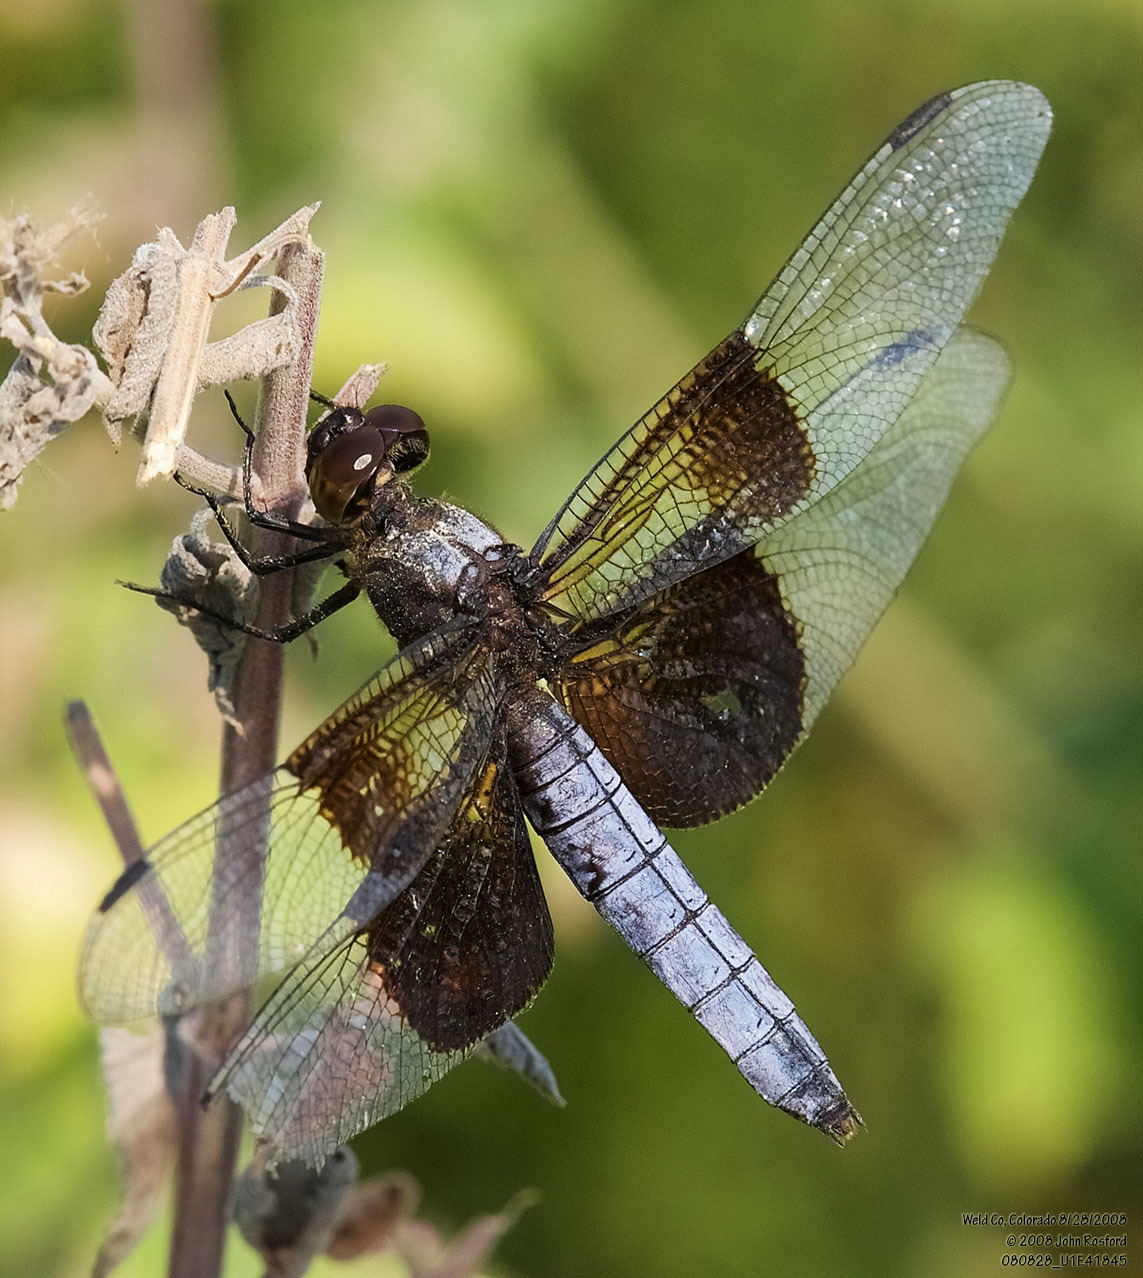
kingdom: Animalia
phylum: Arthropoda
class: Insecta
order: Odonata
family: Libellulidae
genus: Libellula
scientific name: Libellula luctuosa
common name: Widow skimmer
